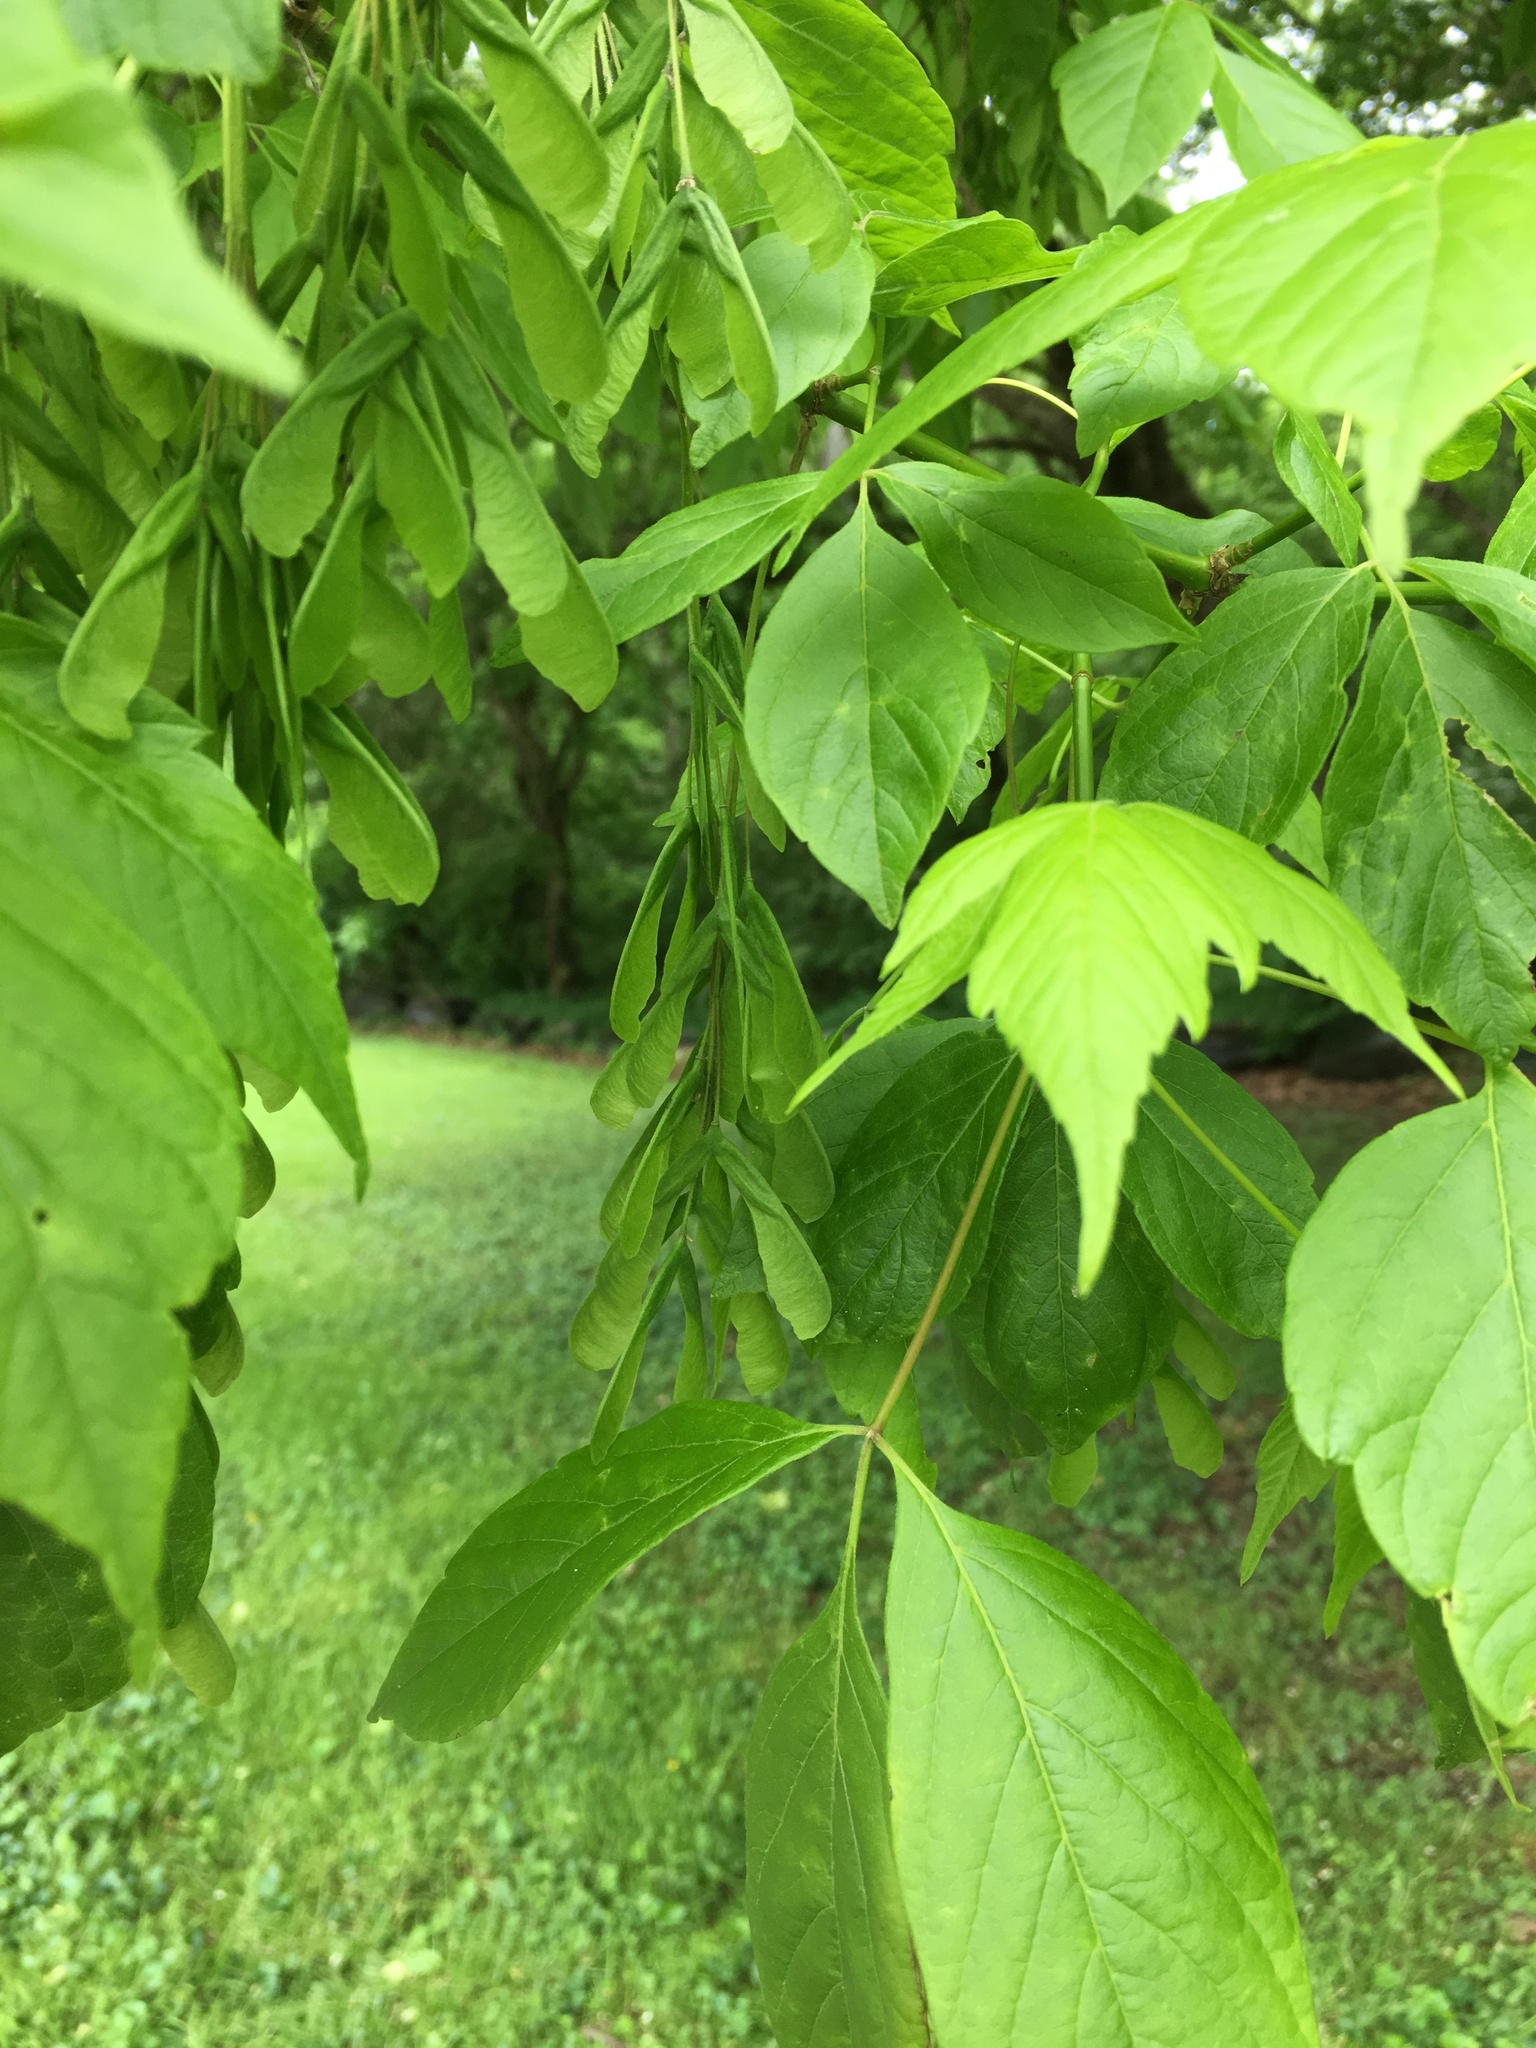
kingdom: Plantae
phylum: Tracheophyta
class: Magnoliopsida
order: Sapindales
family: Sapindaceae
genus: Acer
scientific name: Acer negundo
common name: Ashleaf maple
